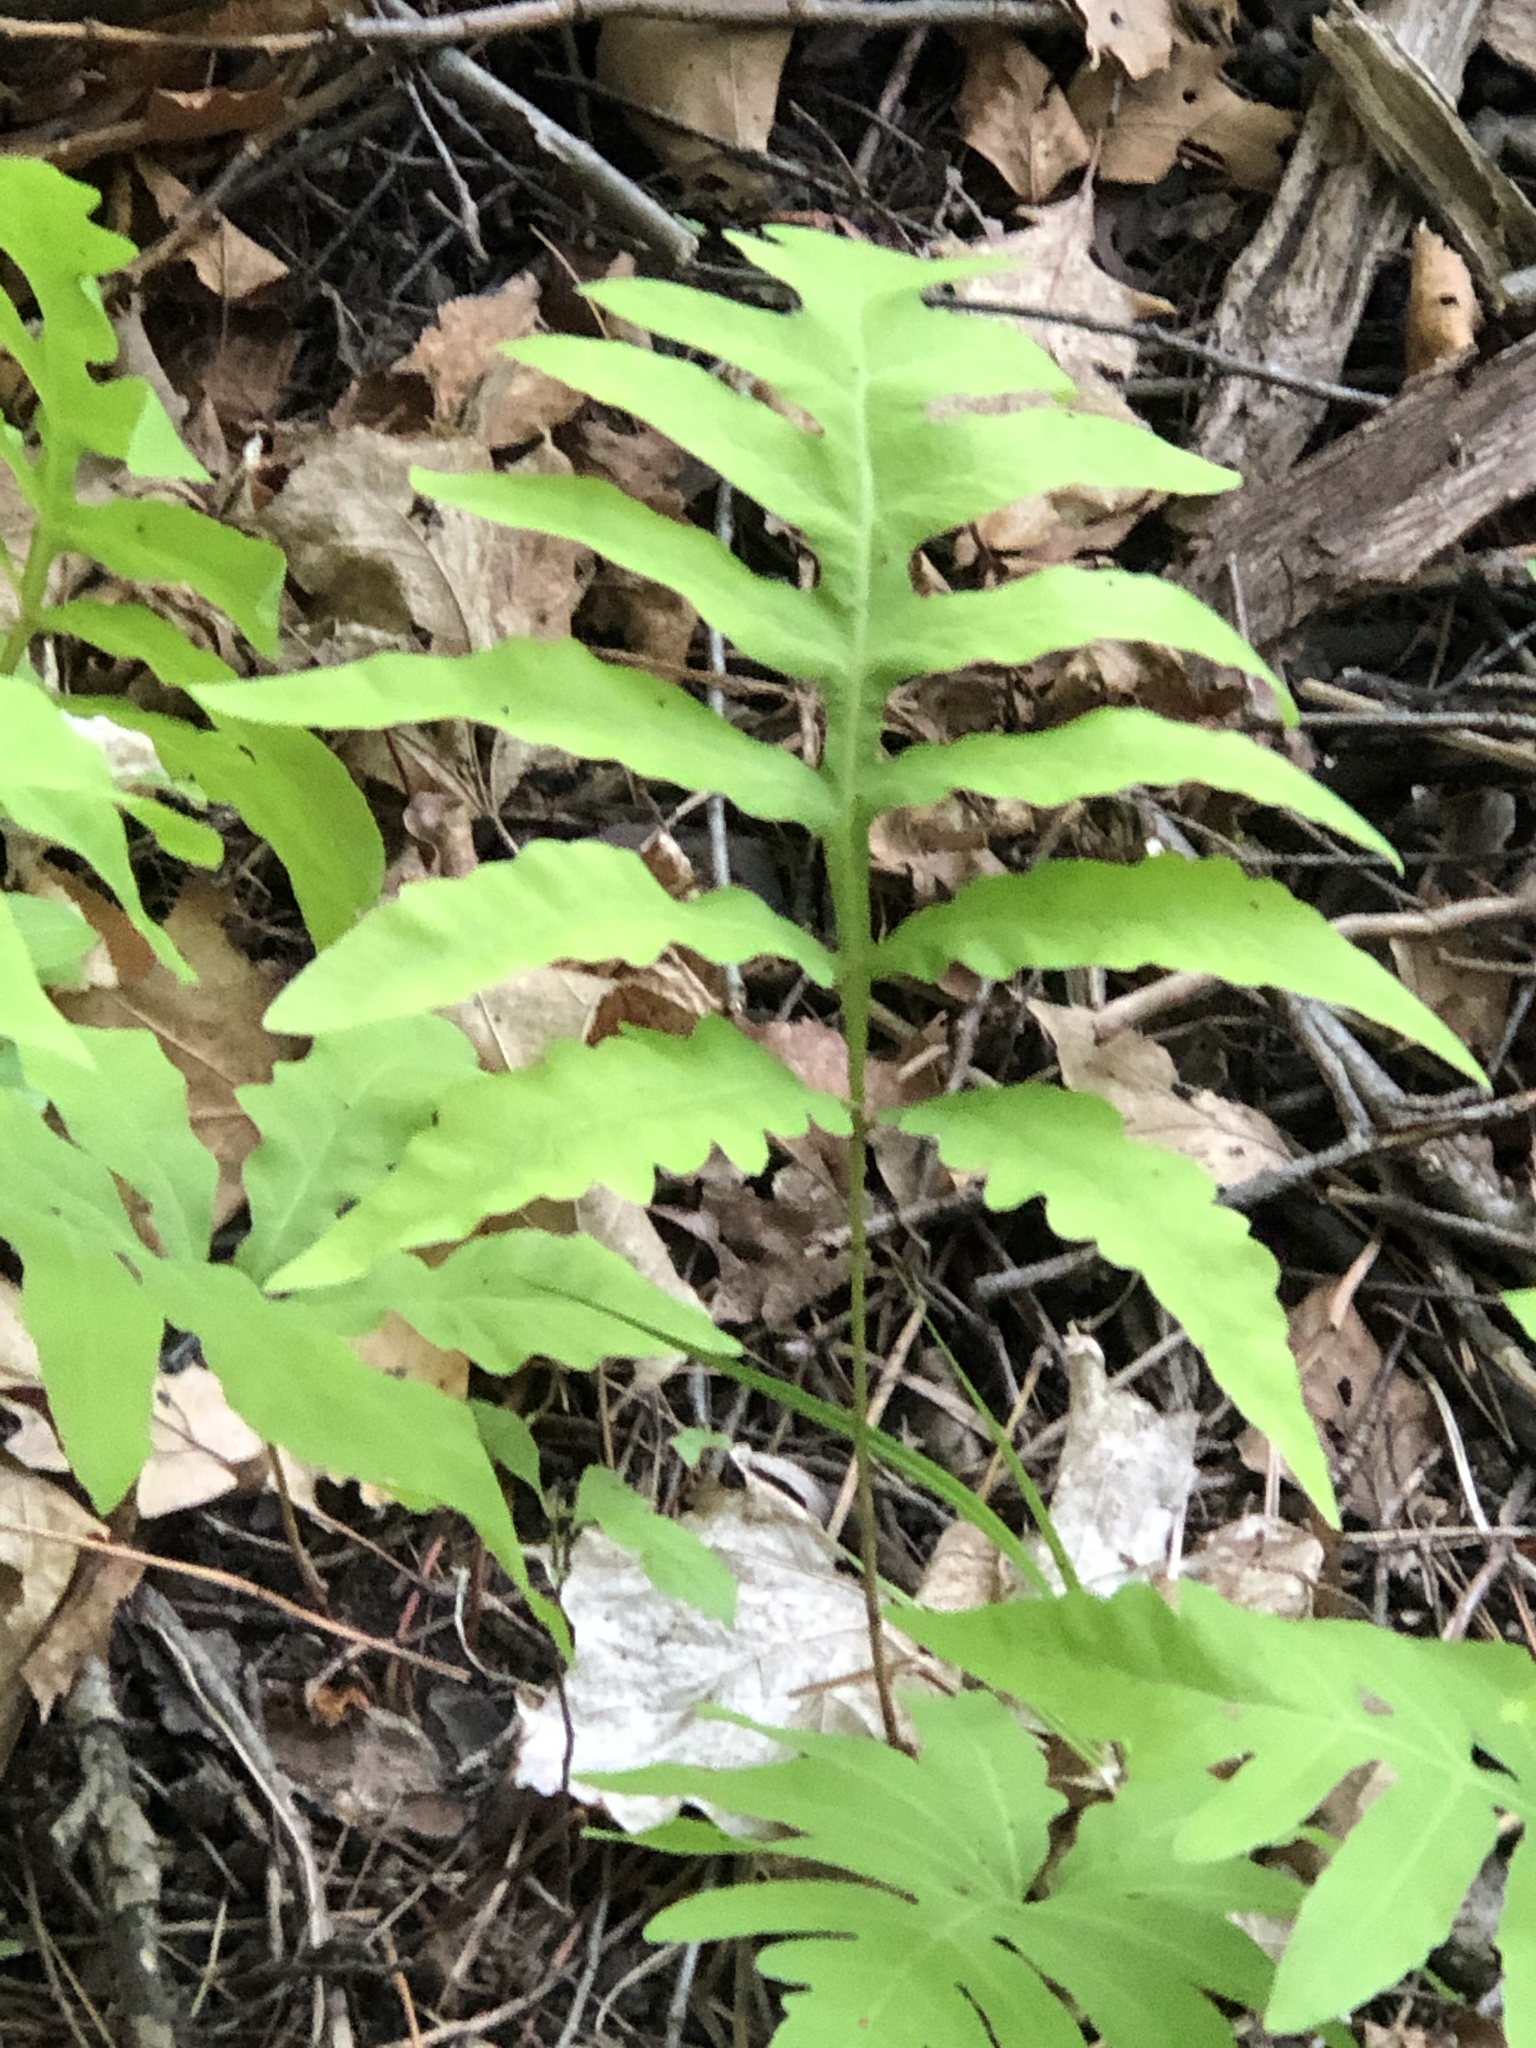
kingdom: Plantae
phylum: Tracheophyta
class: Polypodiopsida
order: Polypodiales
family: Onocleaceae
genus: Onoclea
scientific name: Onoclea sensibilis
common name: Sensitive fern
